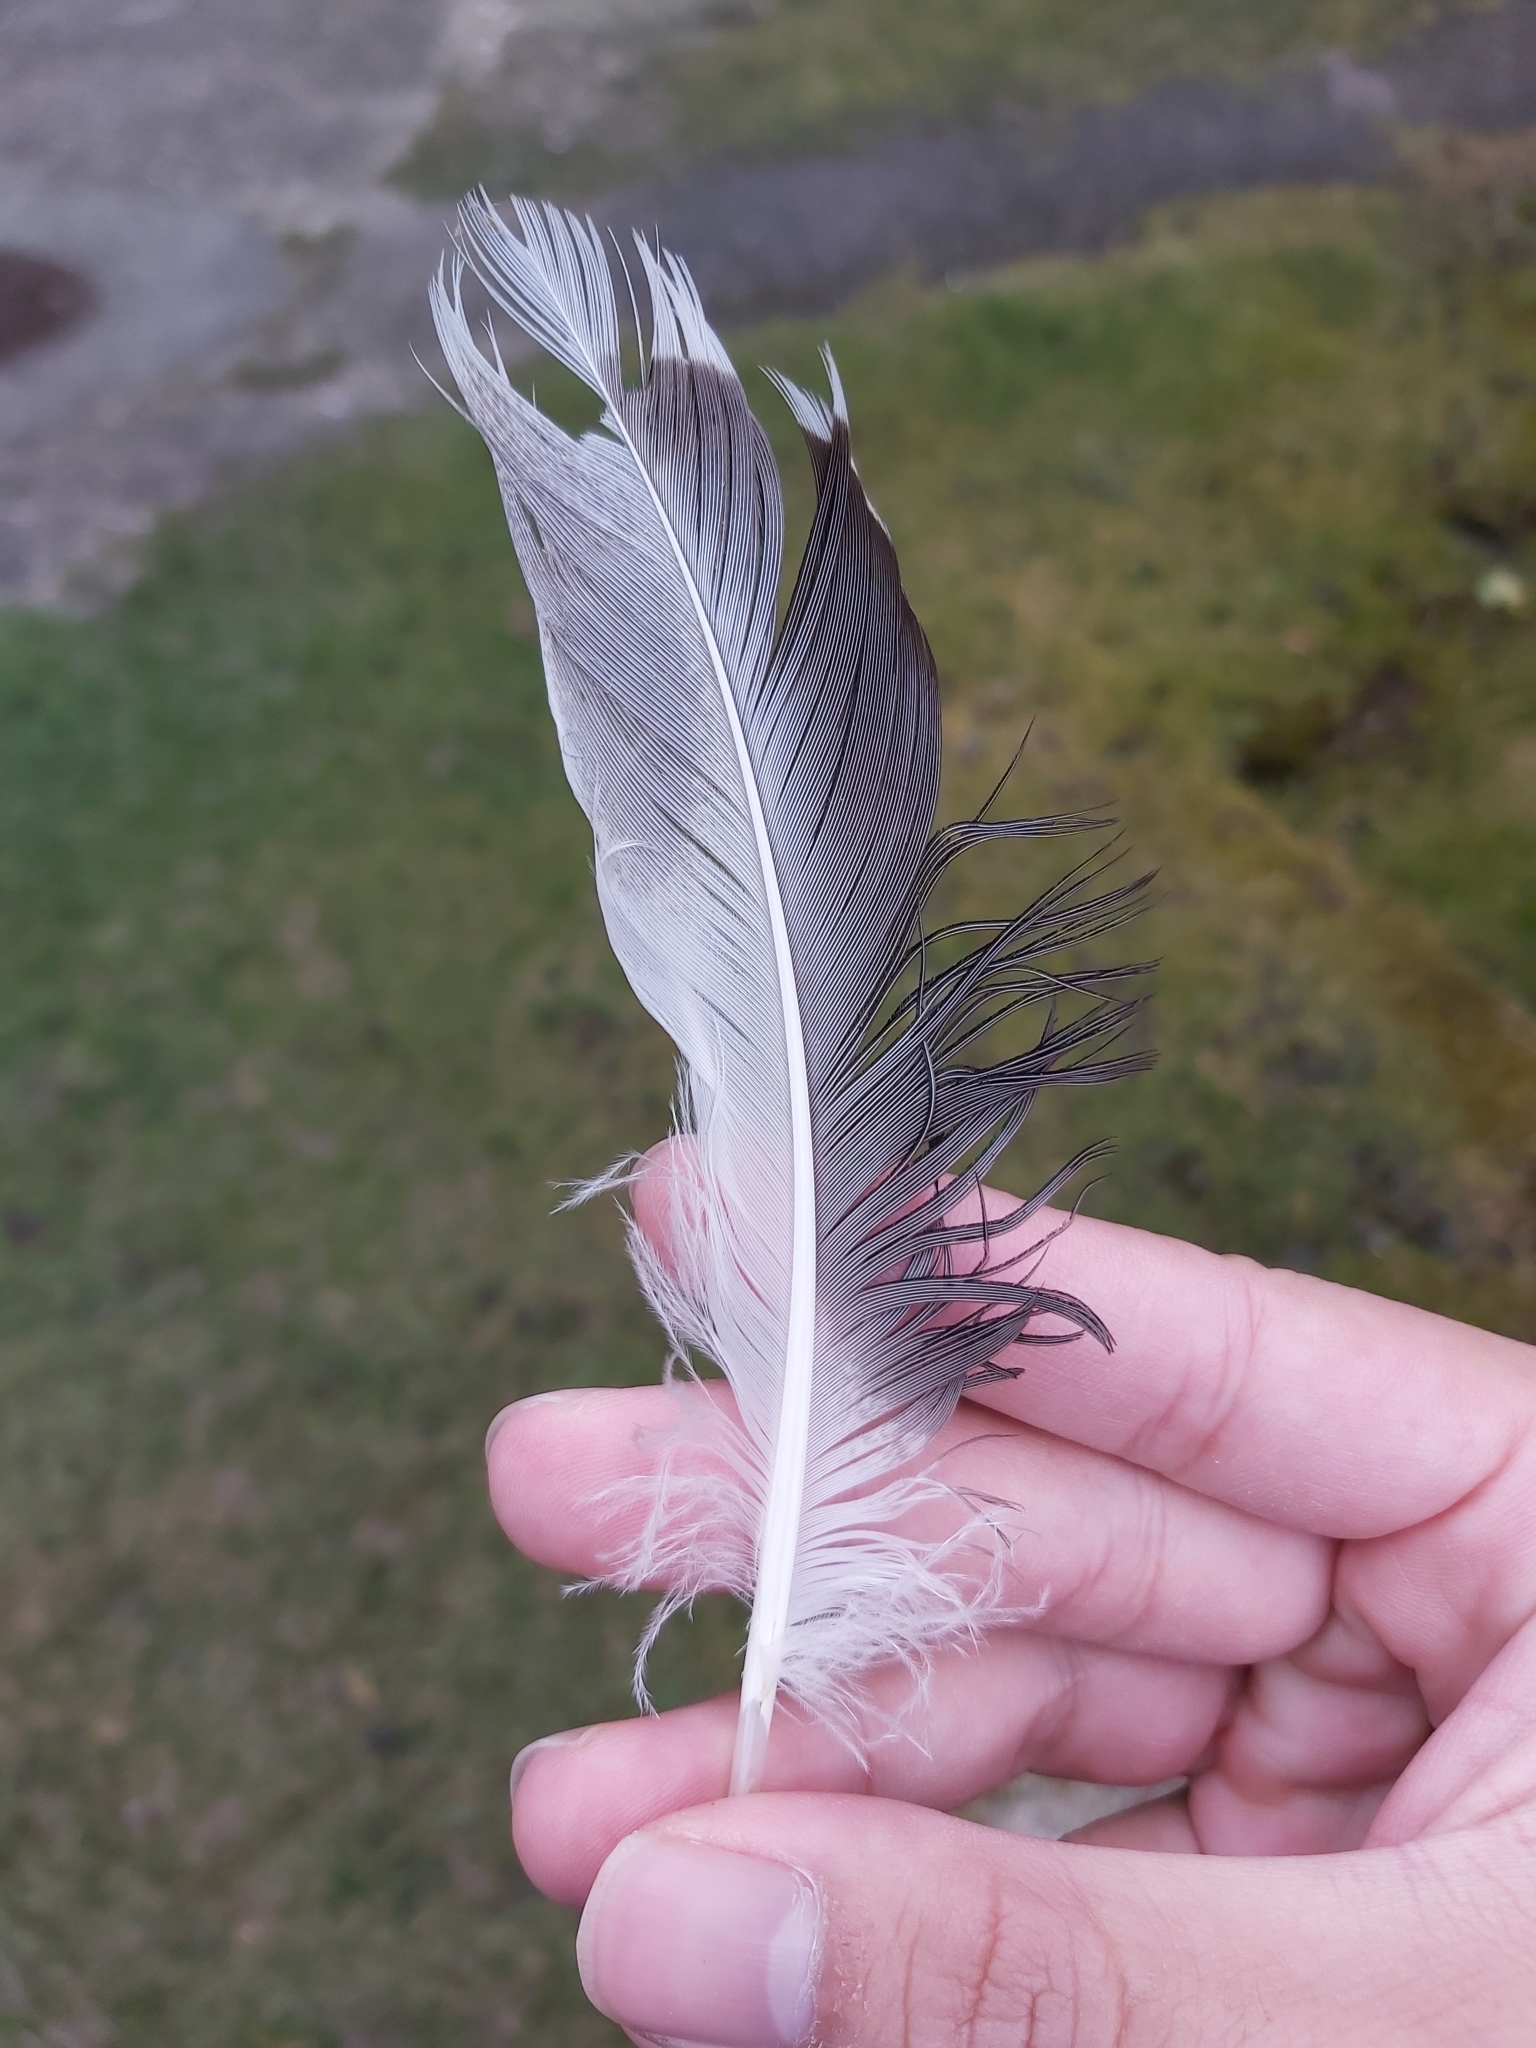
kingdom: Animalia
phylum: Chordata
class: Aves
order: Anseriformes
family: Anatidae
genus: Anas
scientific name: Anas platyrhynchos
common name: Mallard
